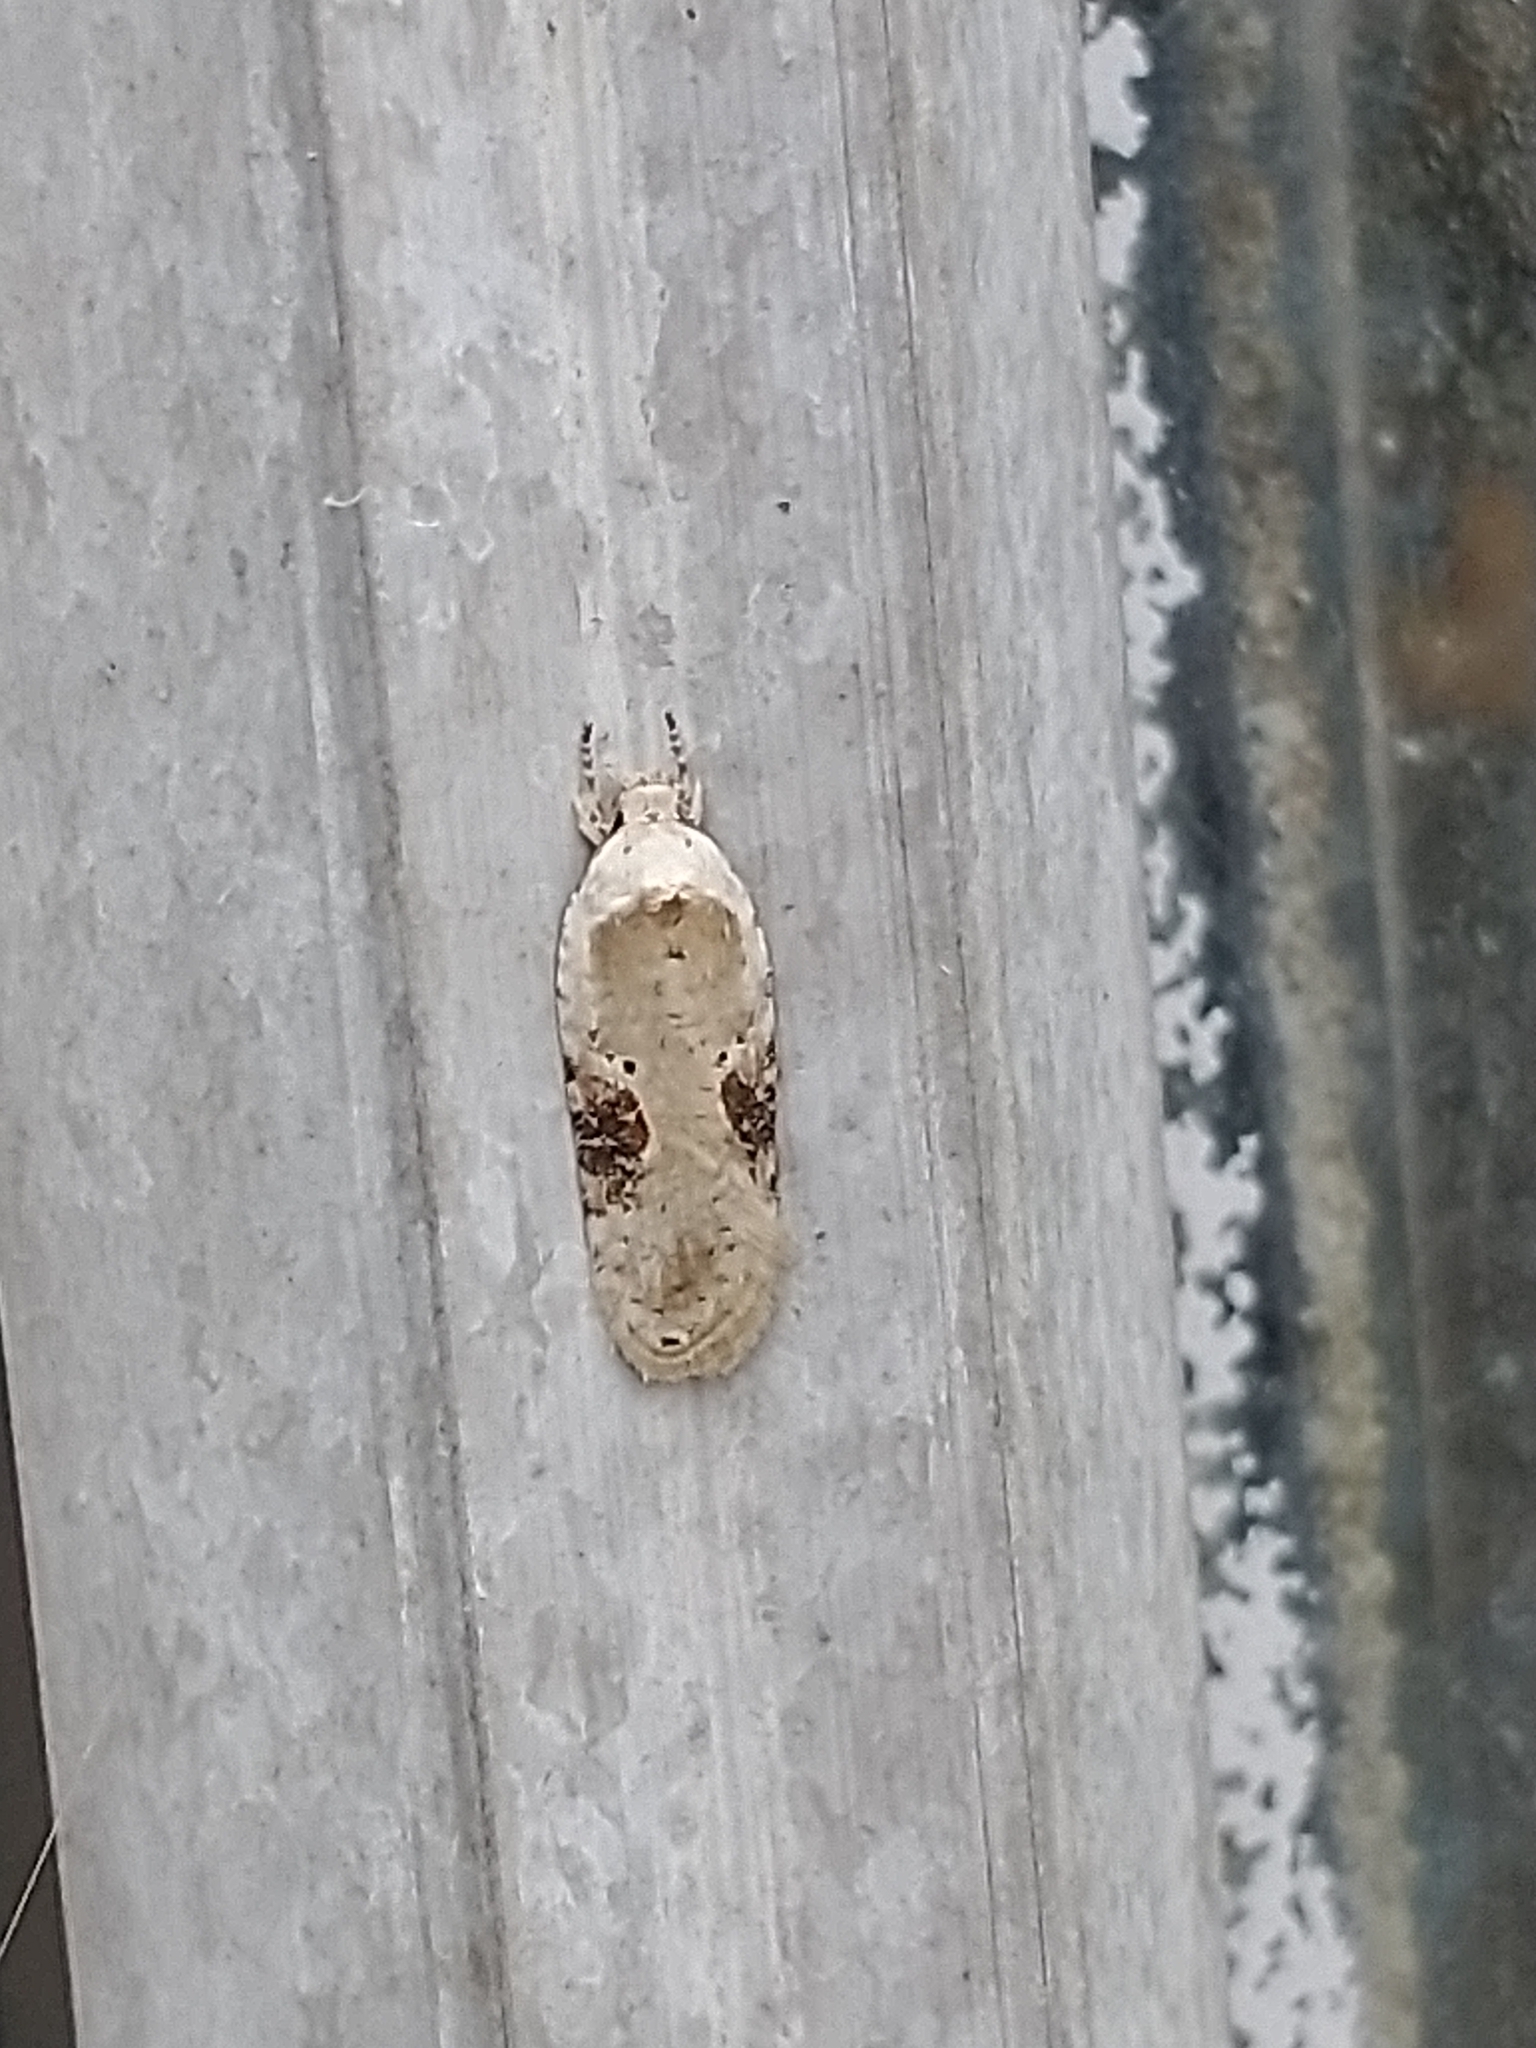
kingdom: Animalia
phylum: Arthropoda
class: Insecta
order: Lepidoptera
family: Depressariidae
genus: Agonopterix
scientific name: Agonopterix alstroemeriana
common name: Moth
